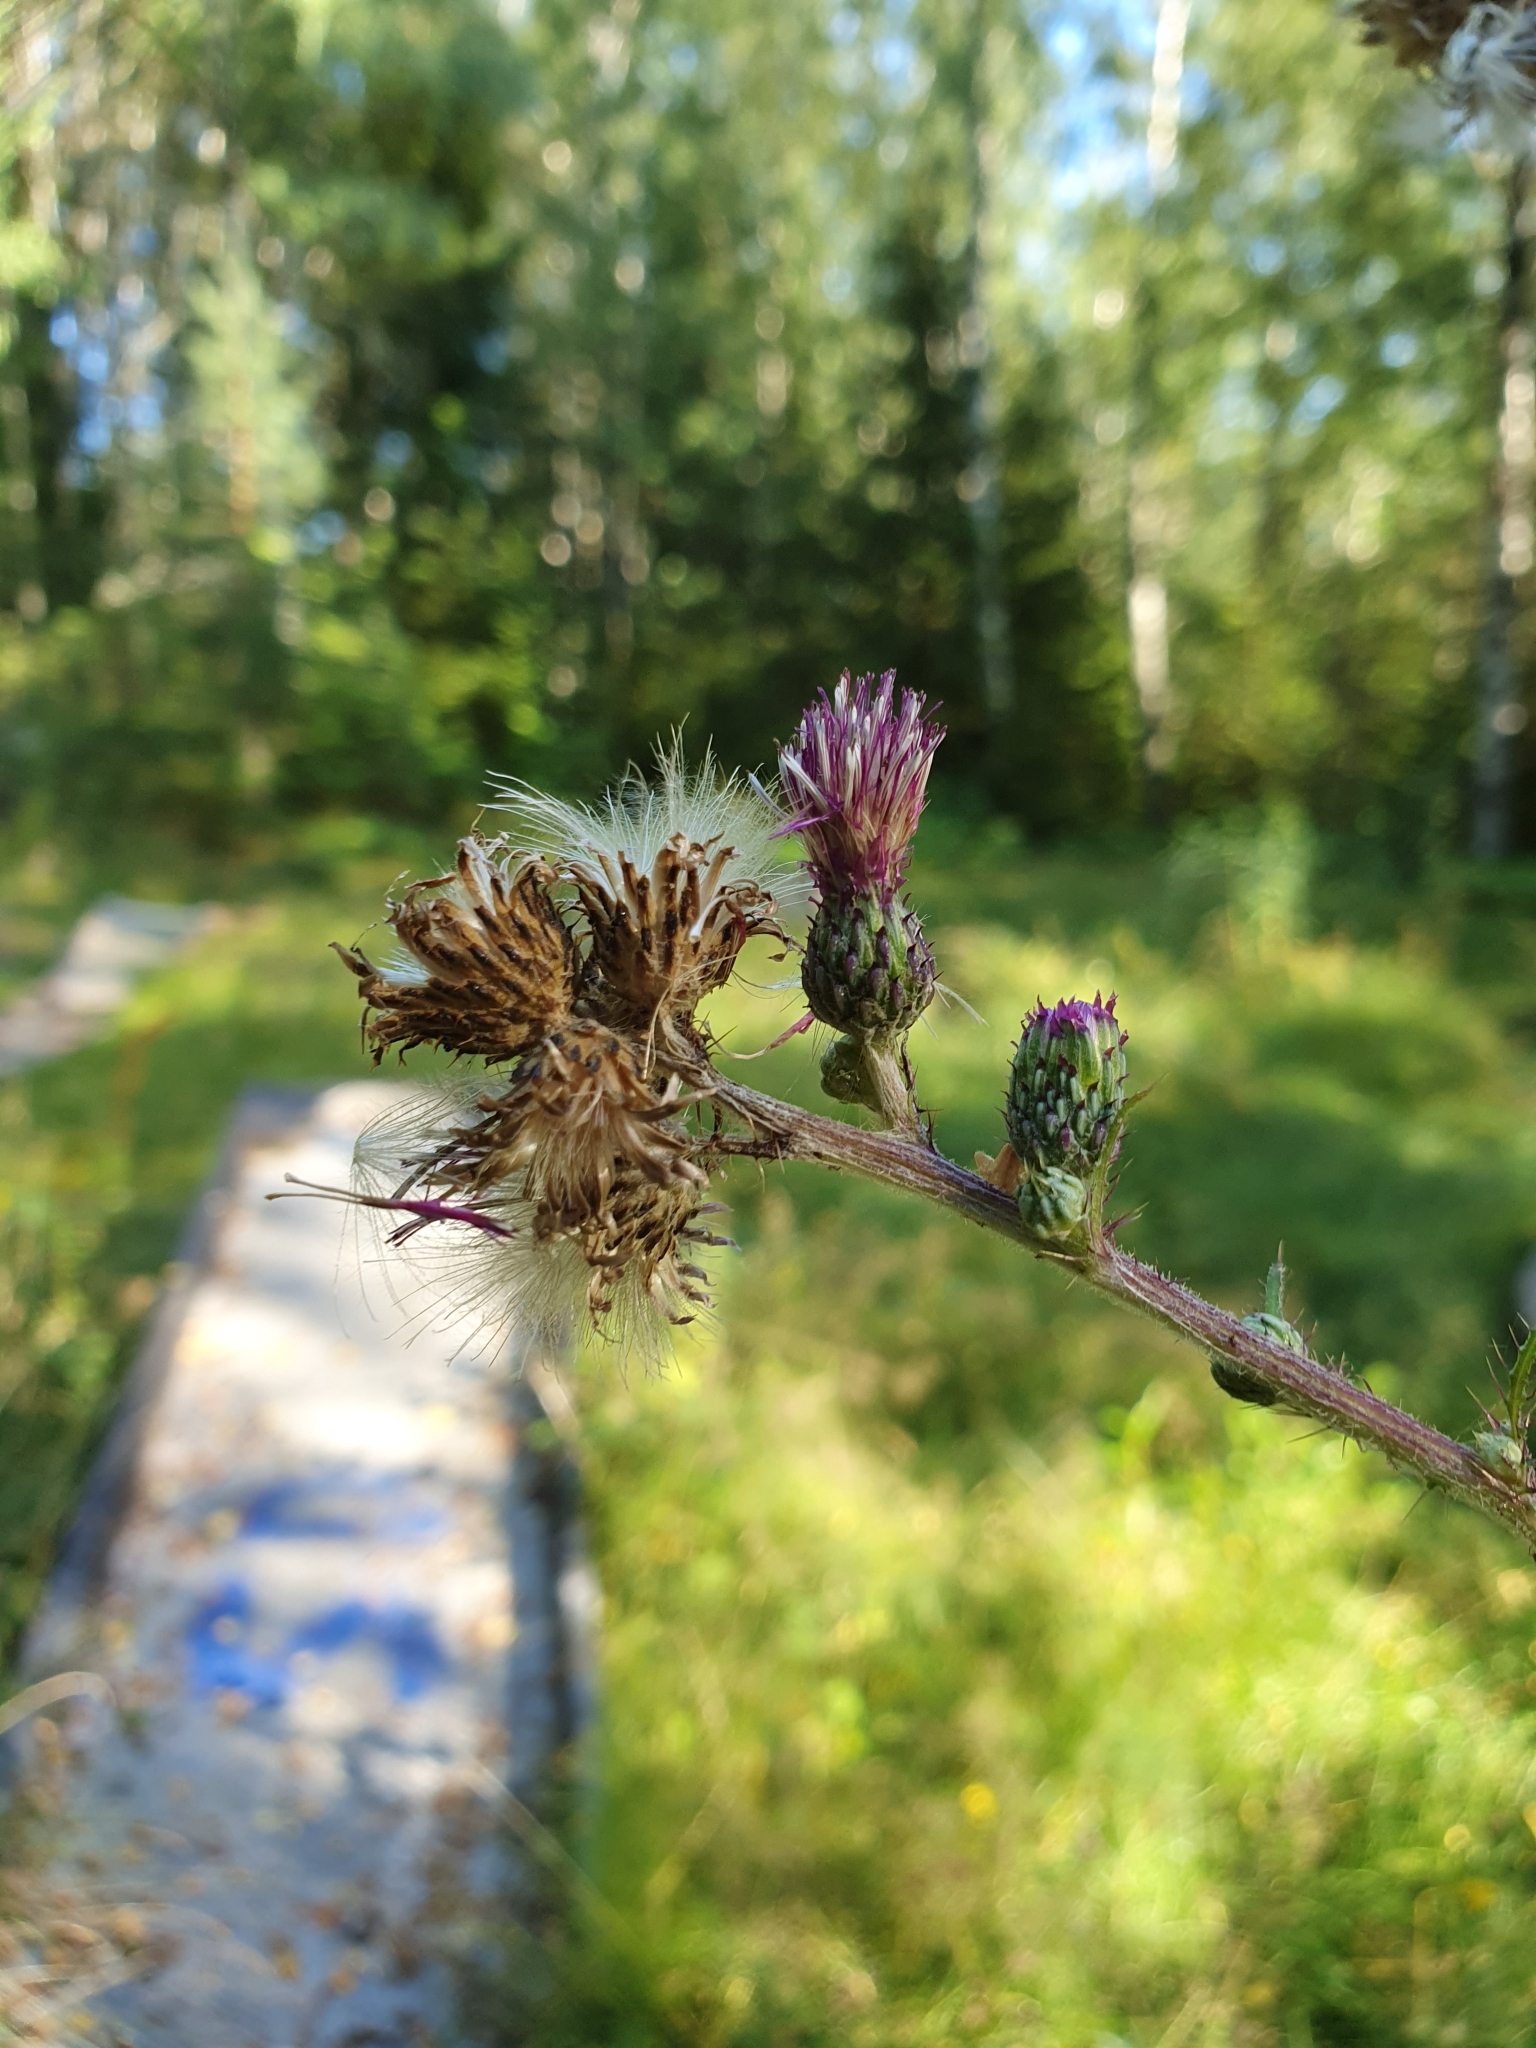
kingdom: Plantae
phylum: Tracheophyta
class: Magnoliopsida
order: Asterales
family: Asteraceae
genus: Cirsium
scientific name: Cirsium palustre
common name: Marsh thistle
